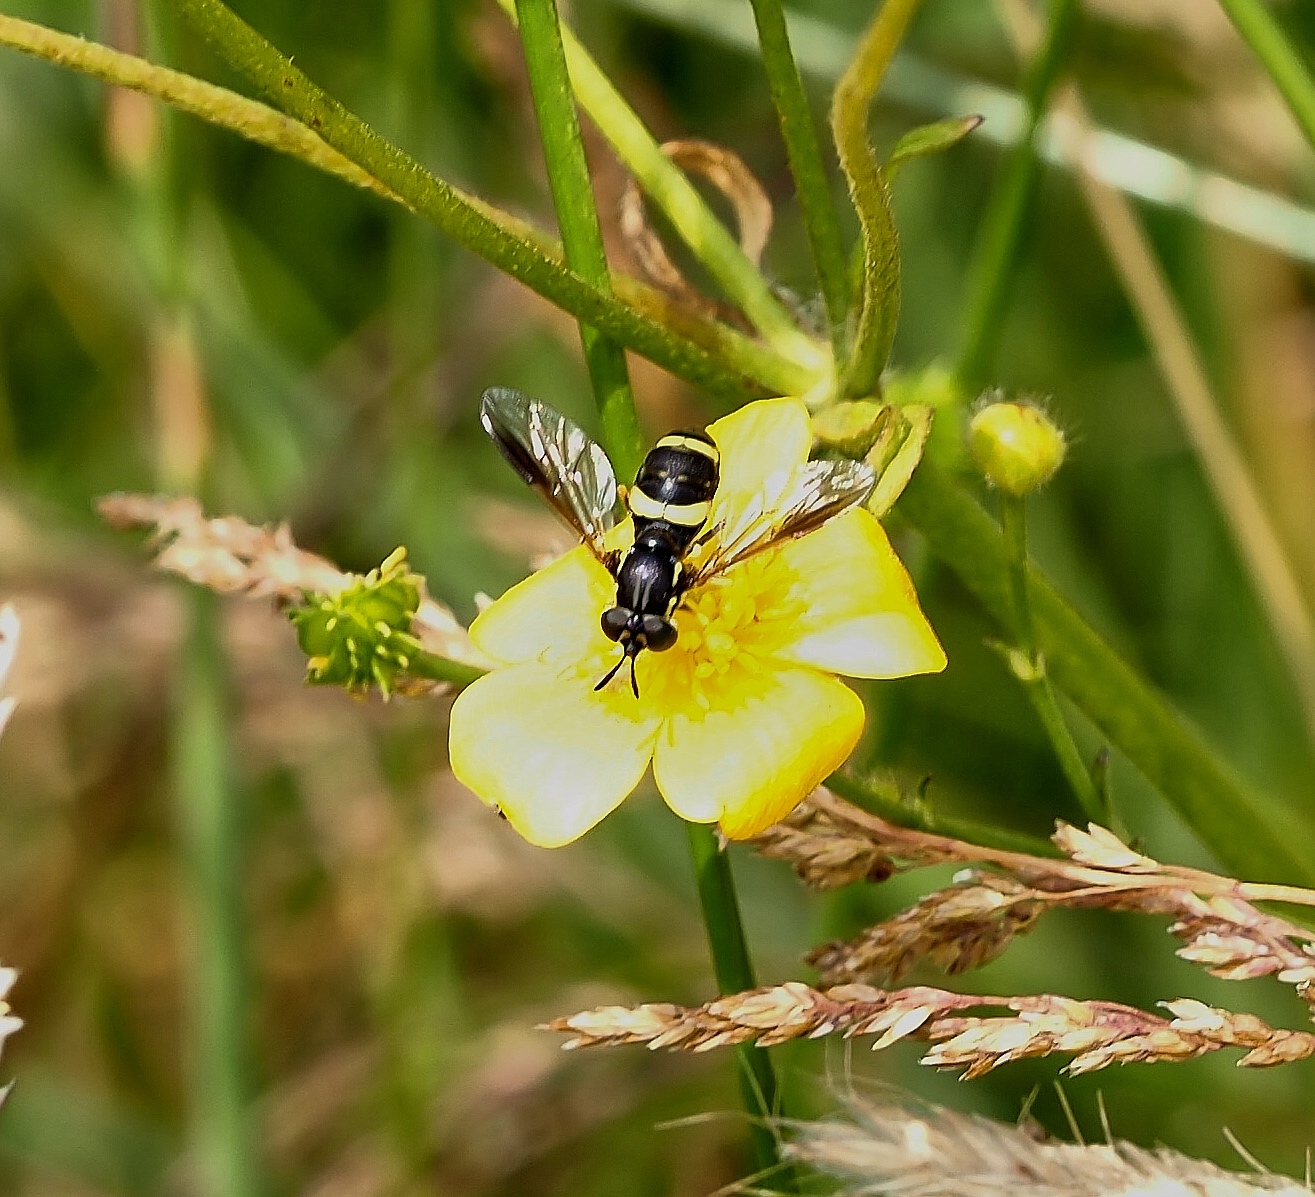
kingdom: Animalia
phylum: Arthropoda
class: Insecta
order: Diptera
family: Syrphidae
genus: Chrysotoxum
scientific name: Chrysotoxum bicincta
